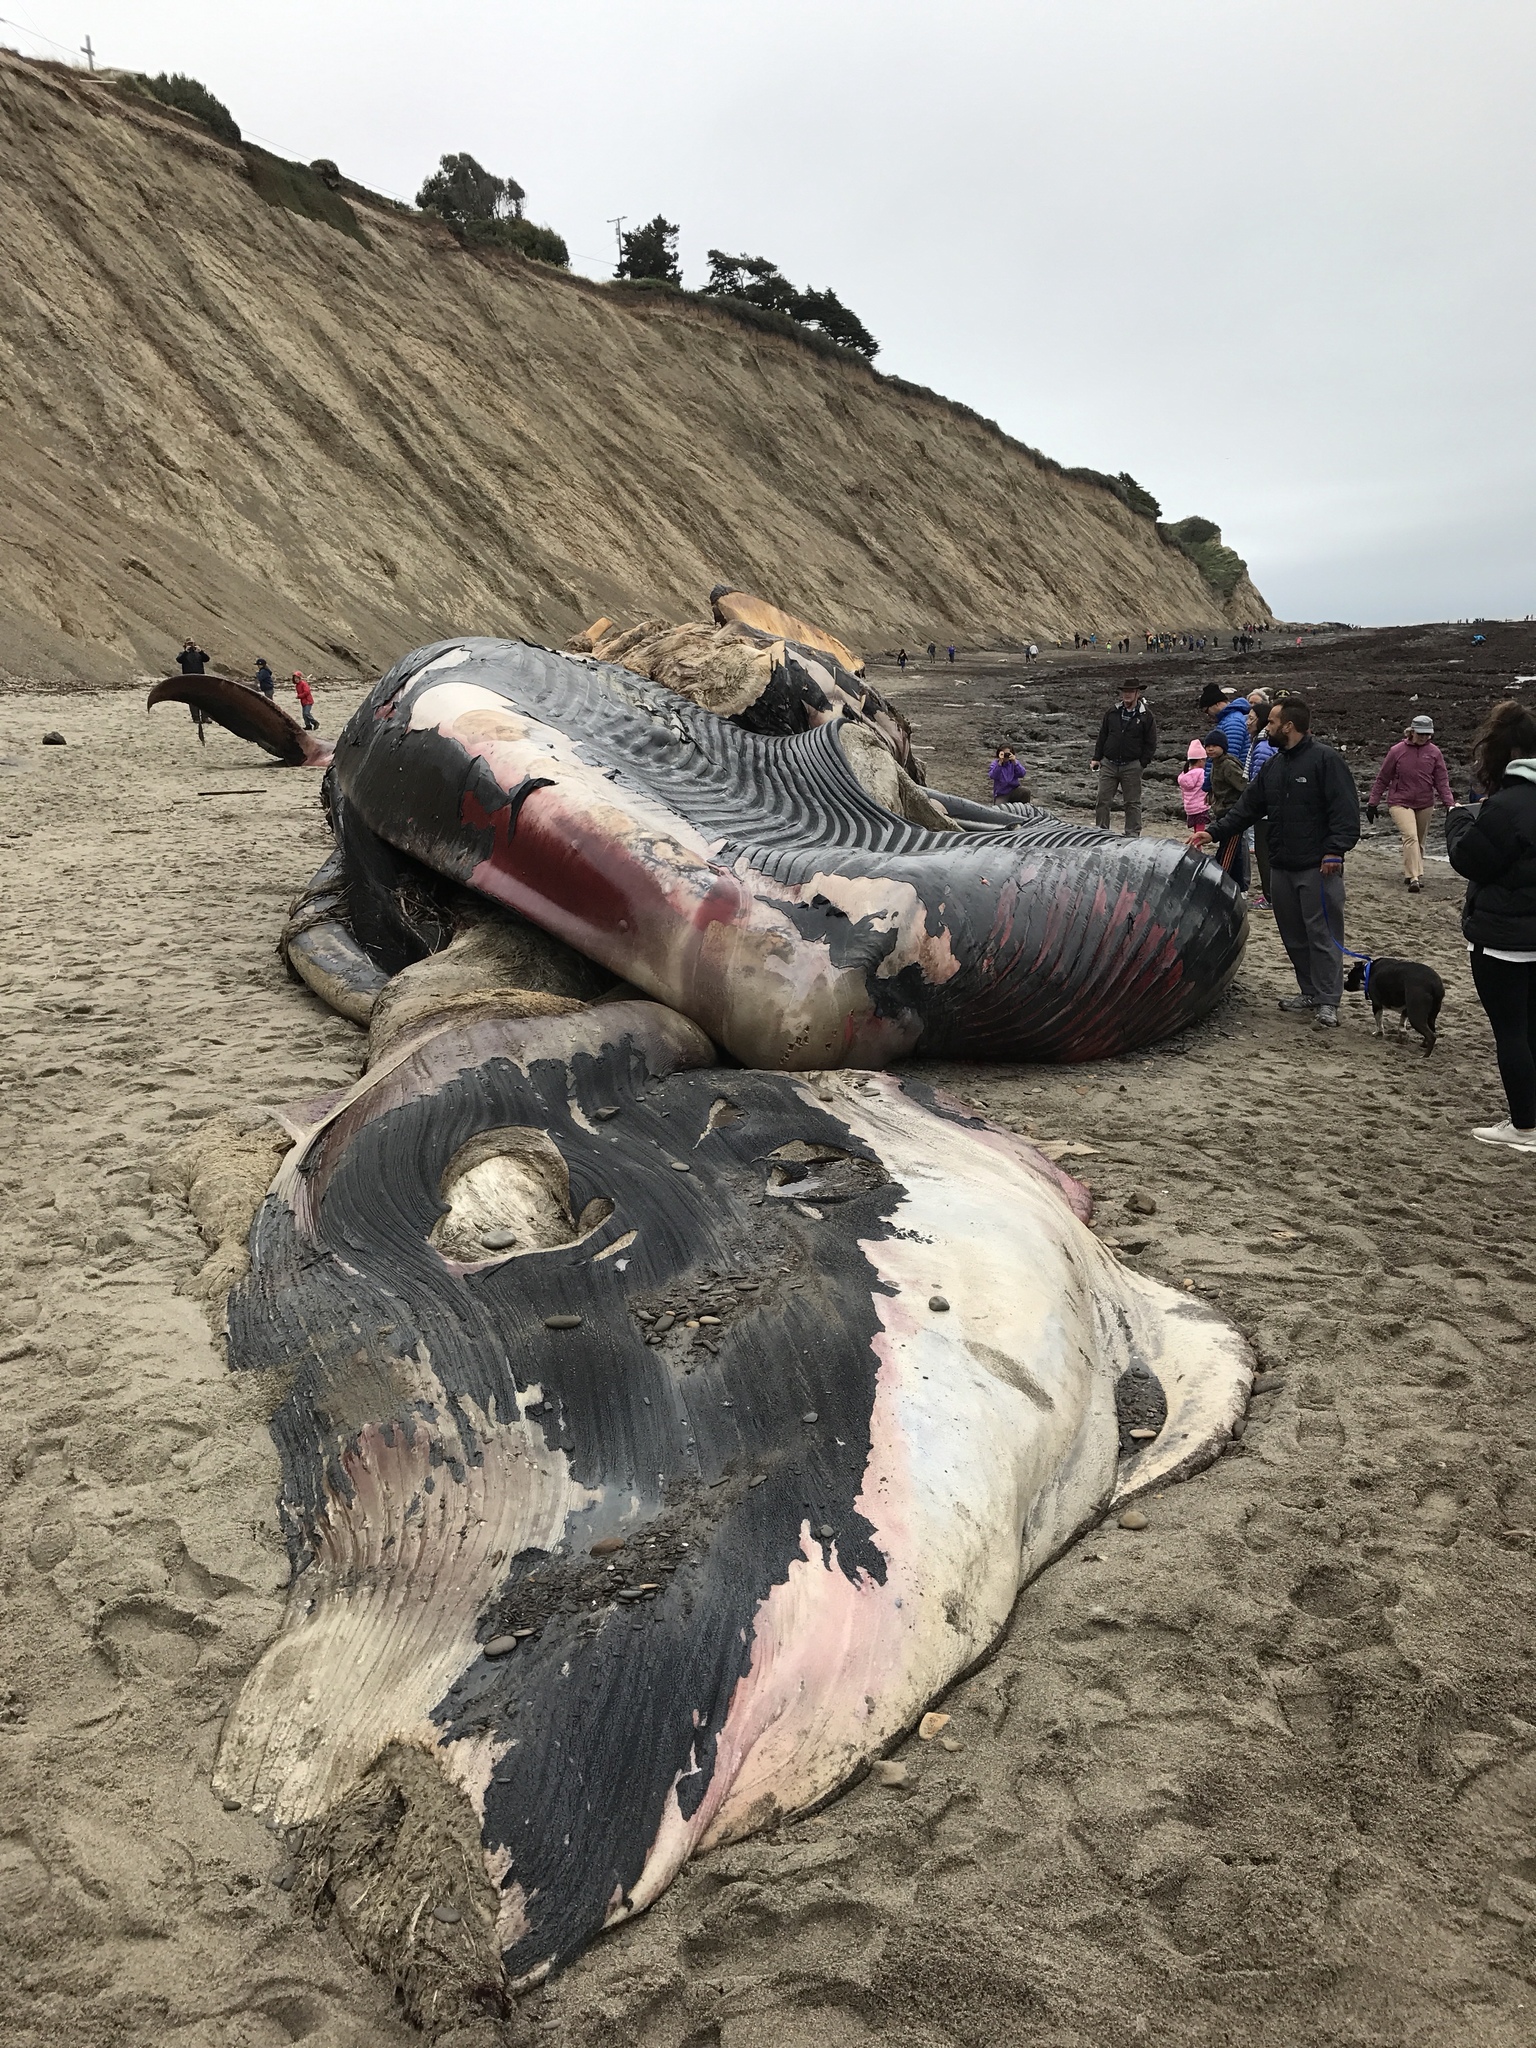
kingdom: Animalia
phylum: Chordata
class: Mammalia
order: Cetacea
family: Balaenopteridae
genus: Balaenoptera
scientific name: Balaenoptera musculus
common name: Blue whale
